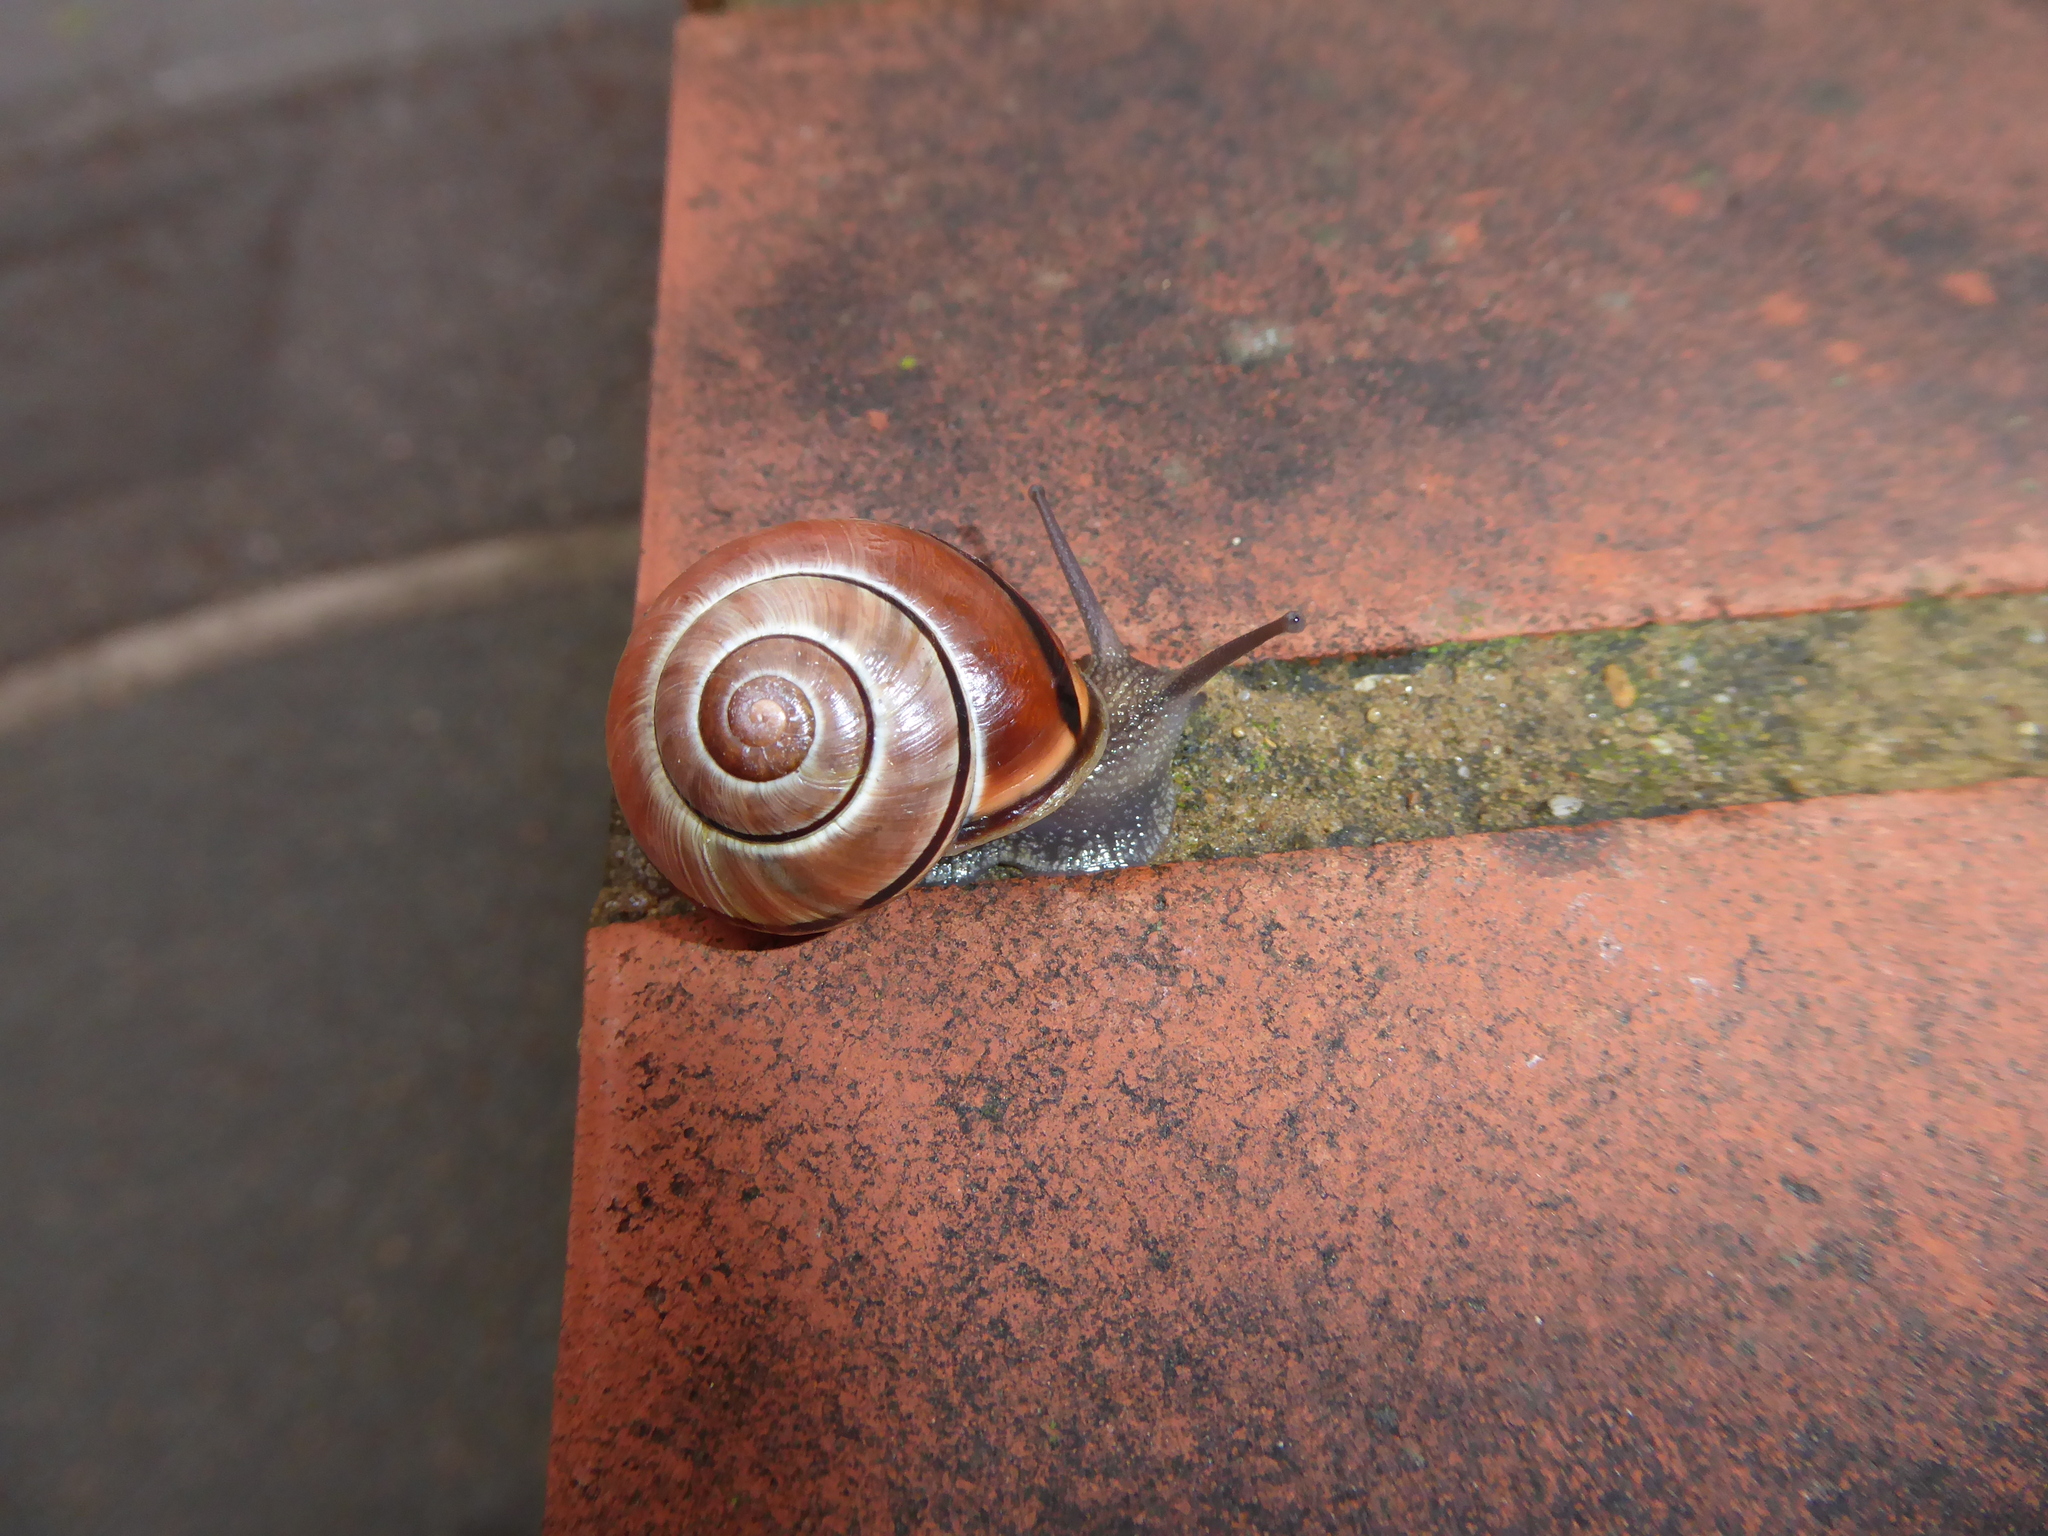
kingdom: Animalia
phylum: Mollusca
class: Gastropoda
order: Stylommatophora
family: Helicidae
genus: Cepaea
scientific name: Cepaea nemoralis
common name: Grovesnail
